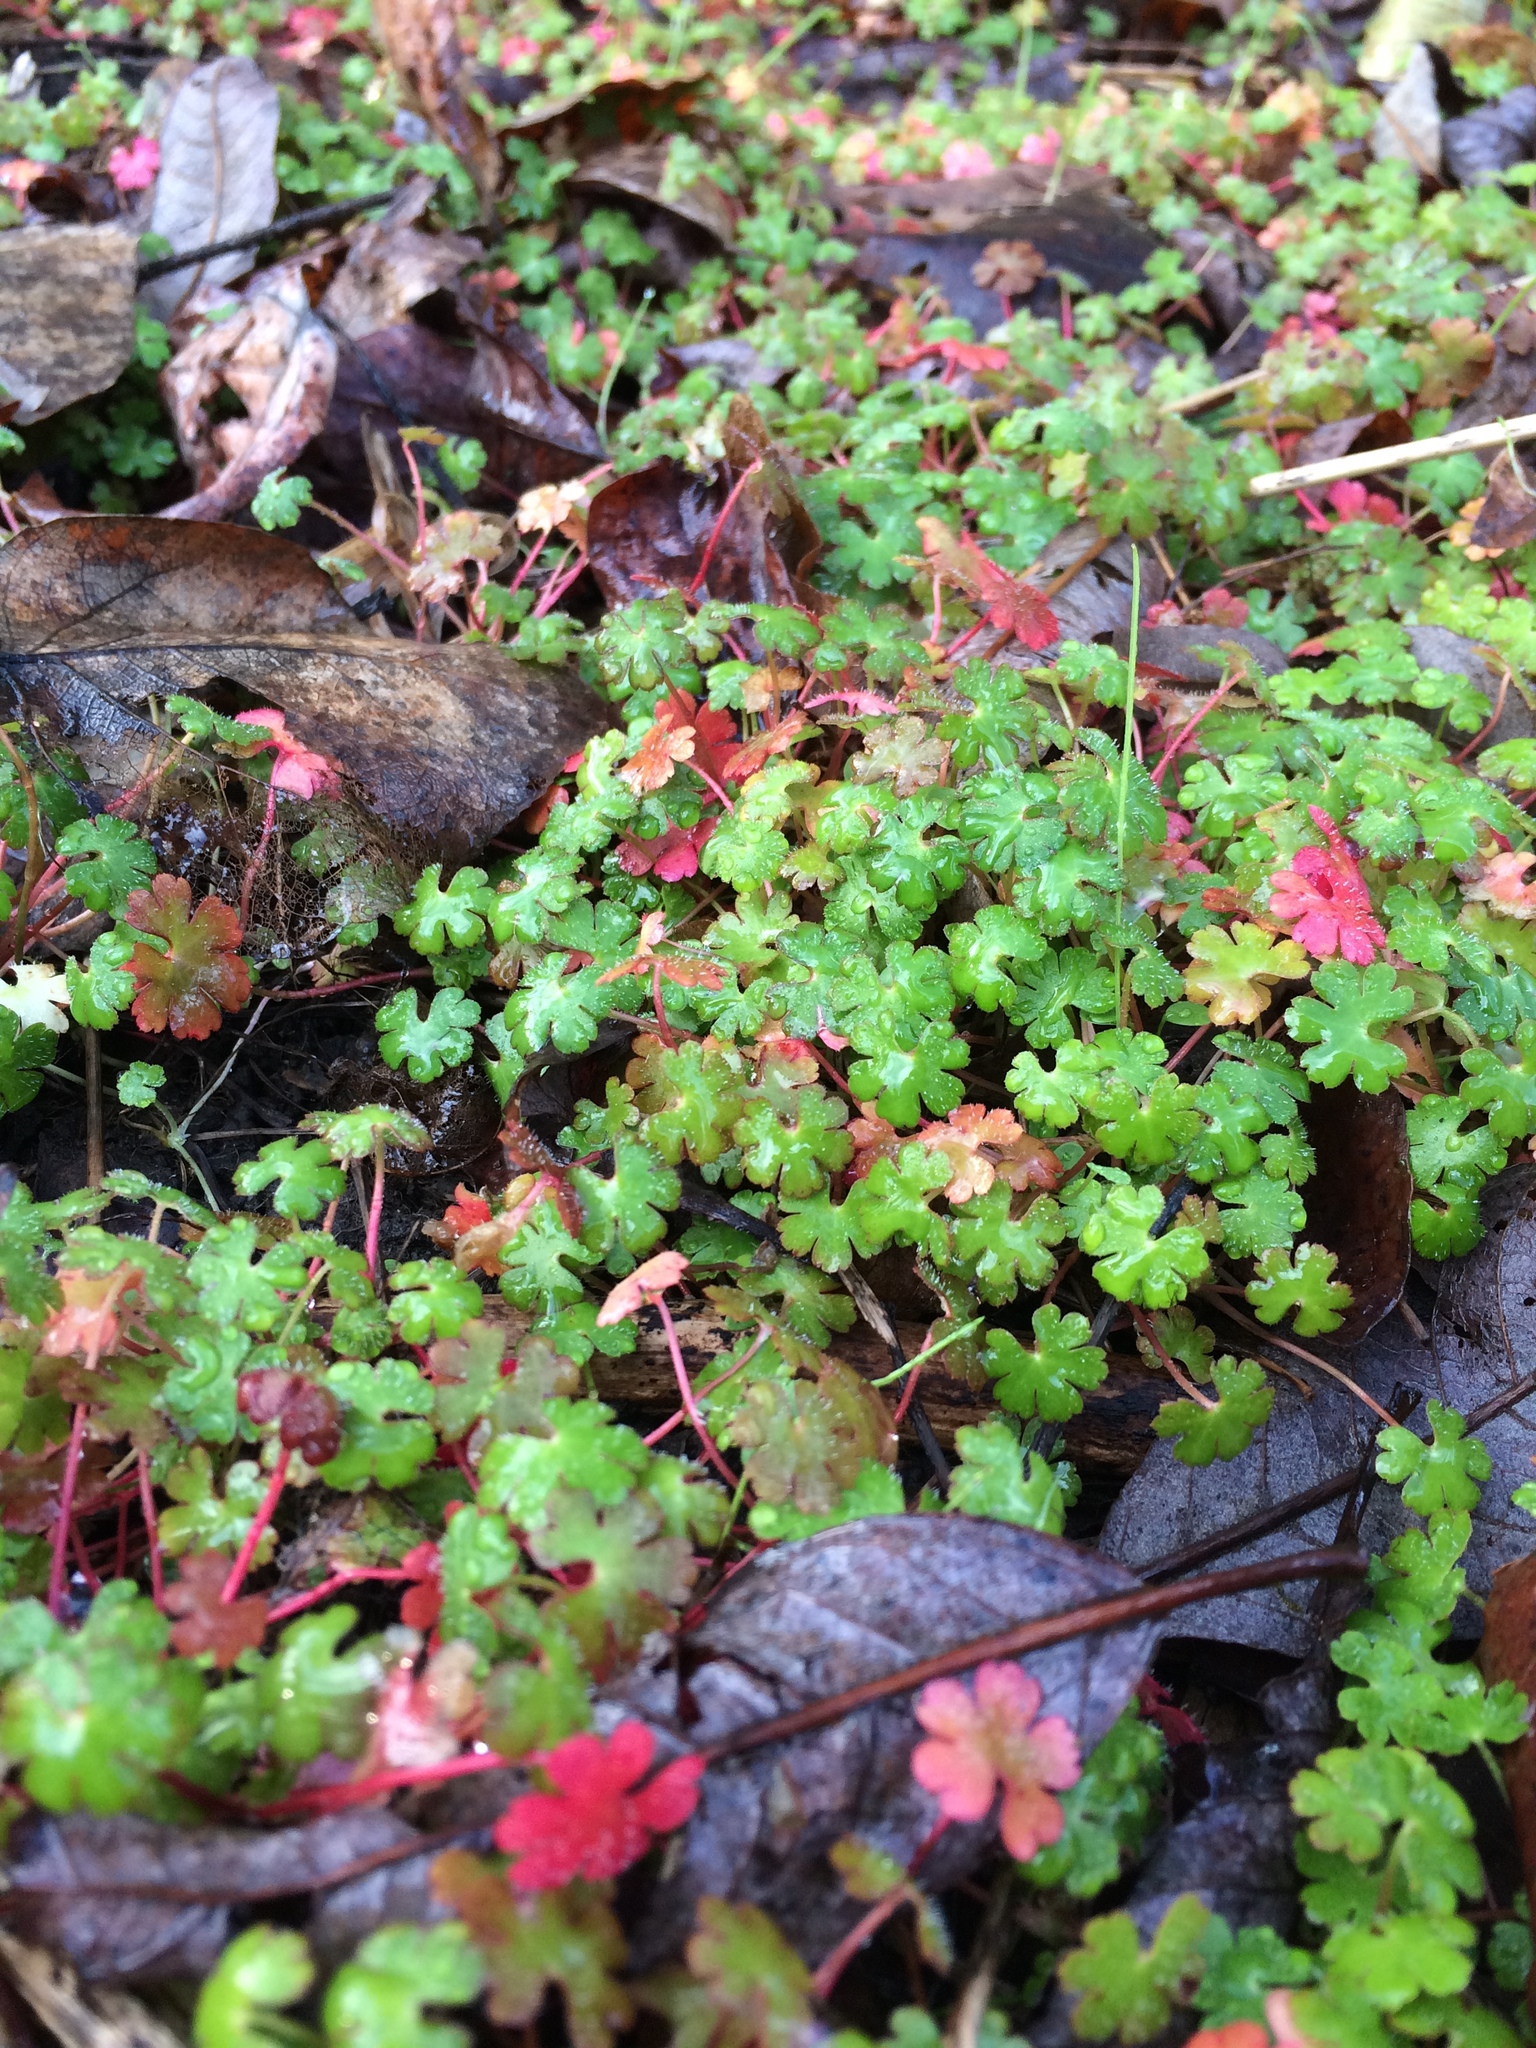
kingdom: Plantae
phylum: Tracheophyta
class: Magnoliopsida
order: Geraniales
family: Geraniaceae
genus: Geranium
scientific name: Geranium lucidum
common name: Shining crane's-bill
